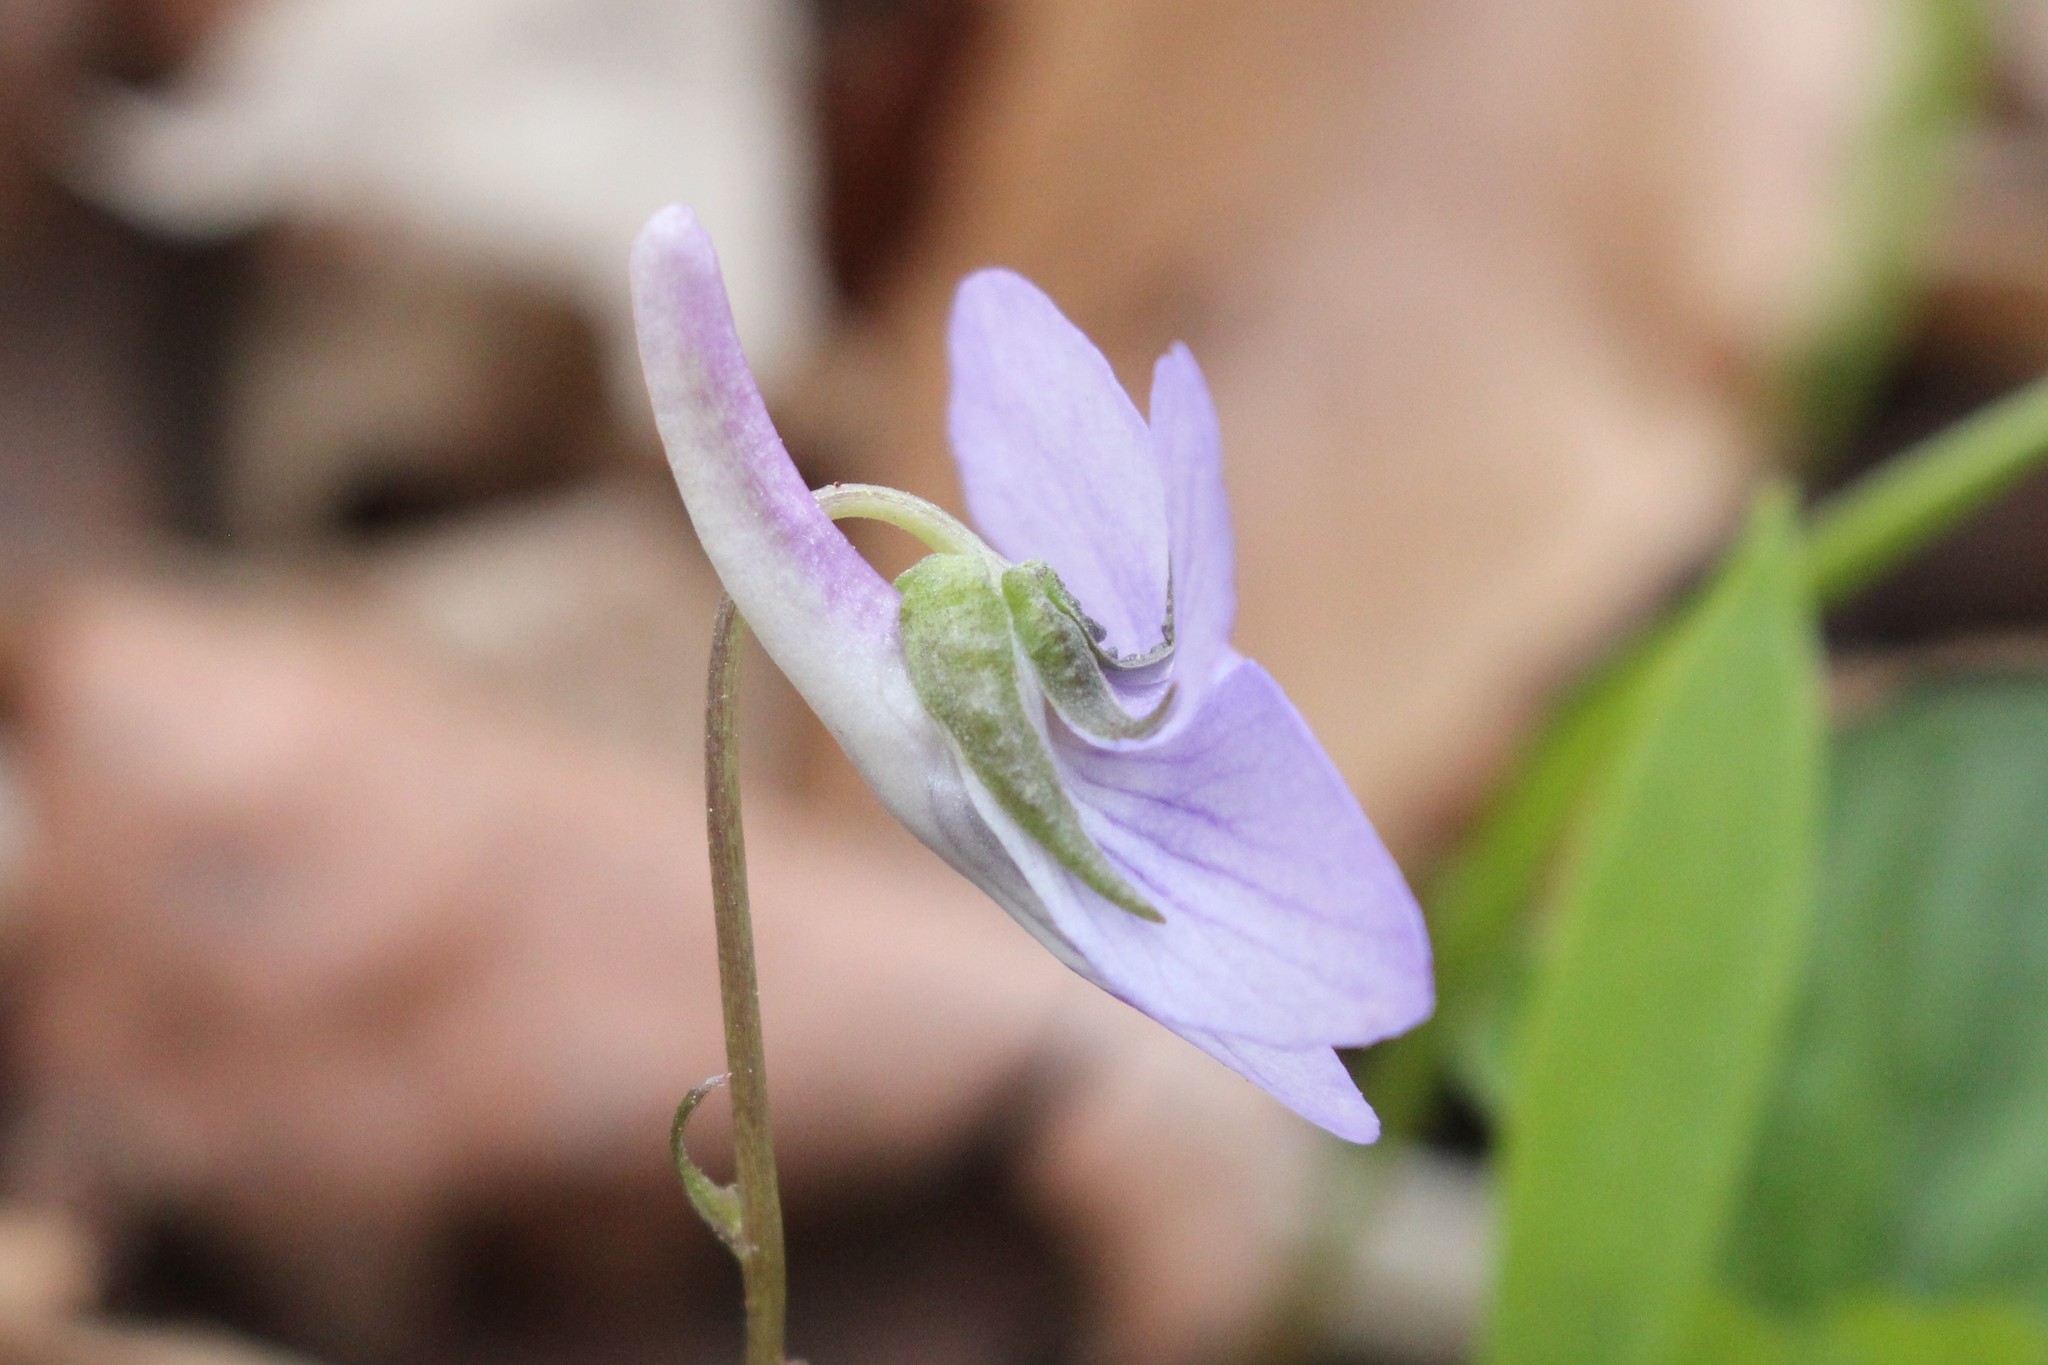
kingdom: Plantae
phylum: Tracheophyta
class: Magnoliopsida
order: Malpighiales
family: Violaceae
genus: Viola
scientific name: Viola rostrata
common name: Long-spur violet
